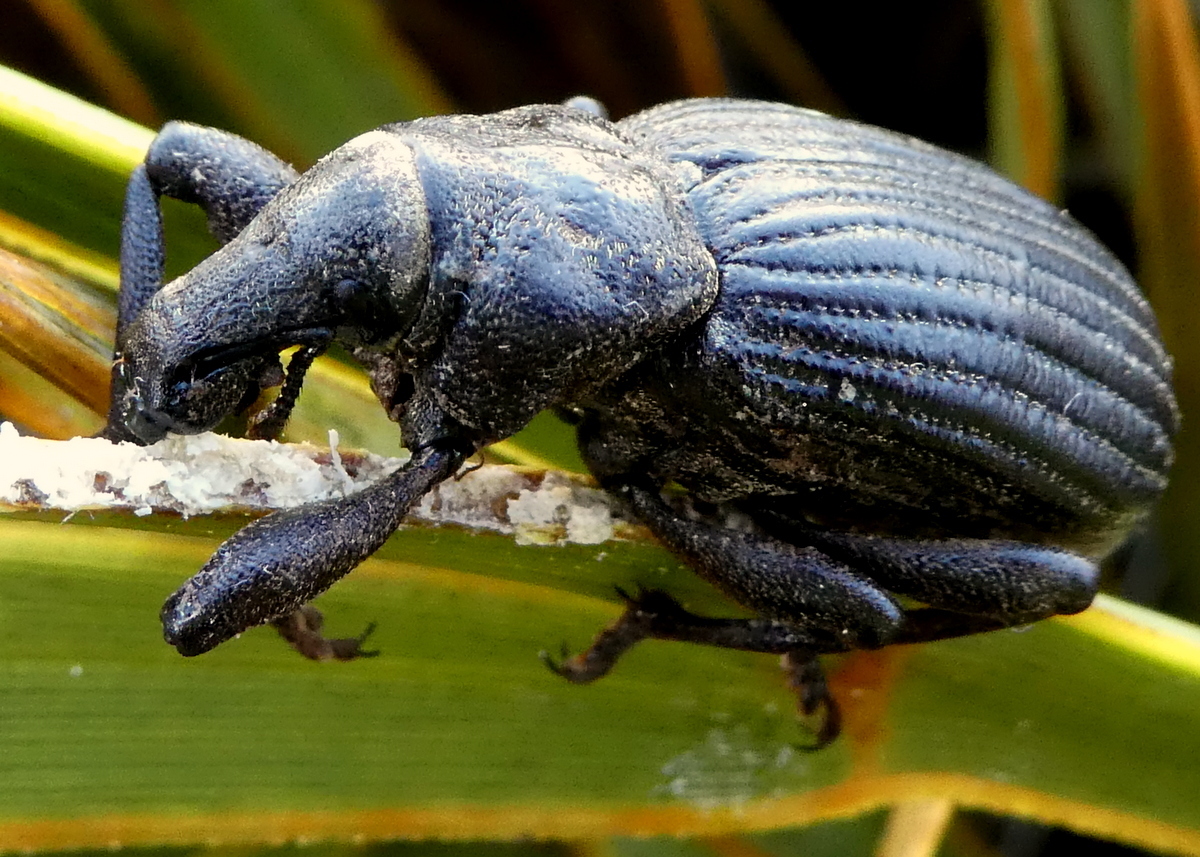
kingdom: Animalia
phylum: Arthropoda
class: Insecta
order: Coleoptera
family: Curculionidae
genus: Lyperobius
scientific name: Lyperobius huttoni
